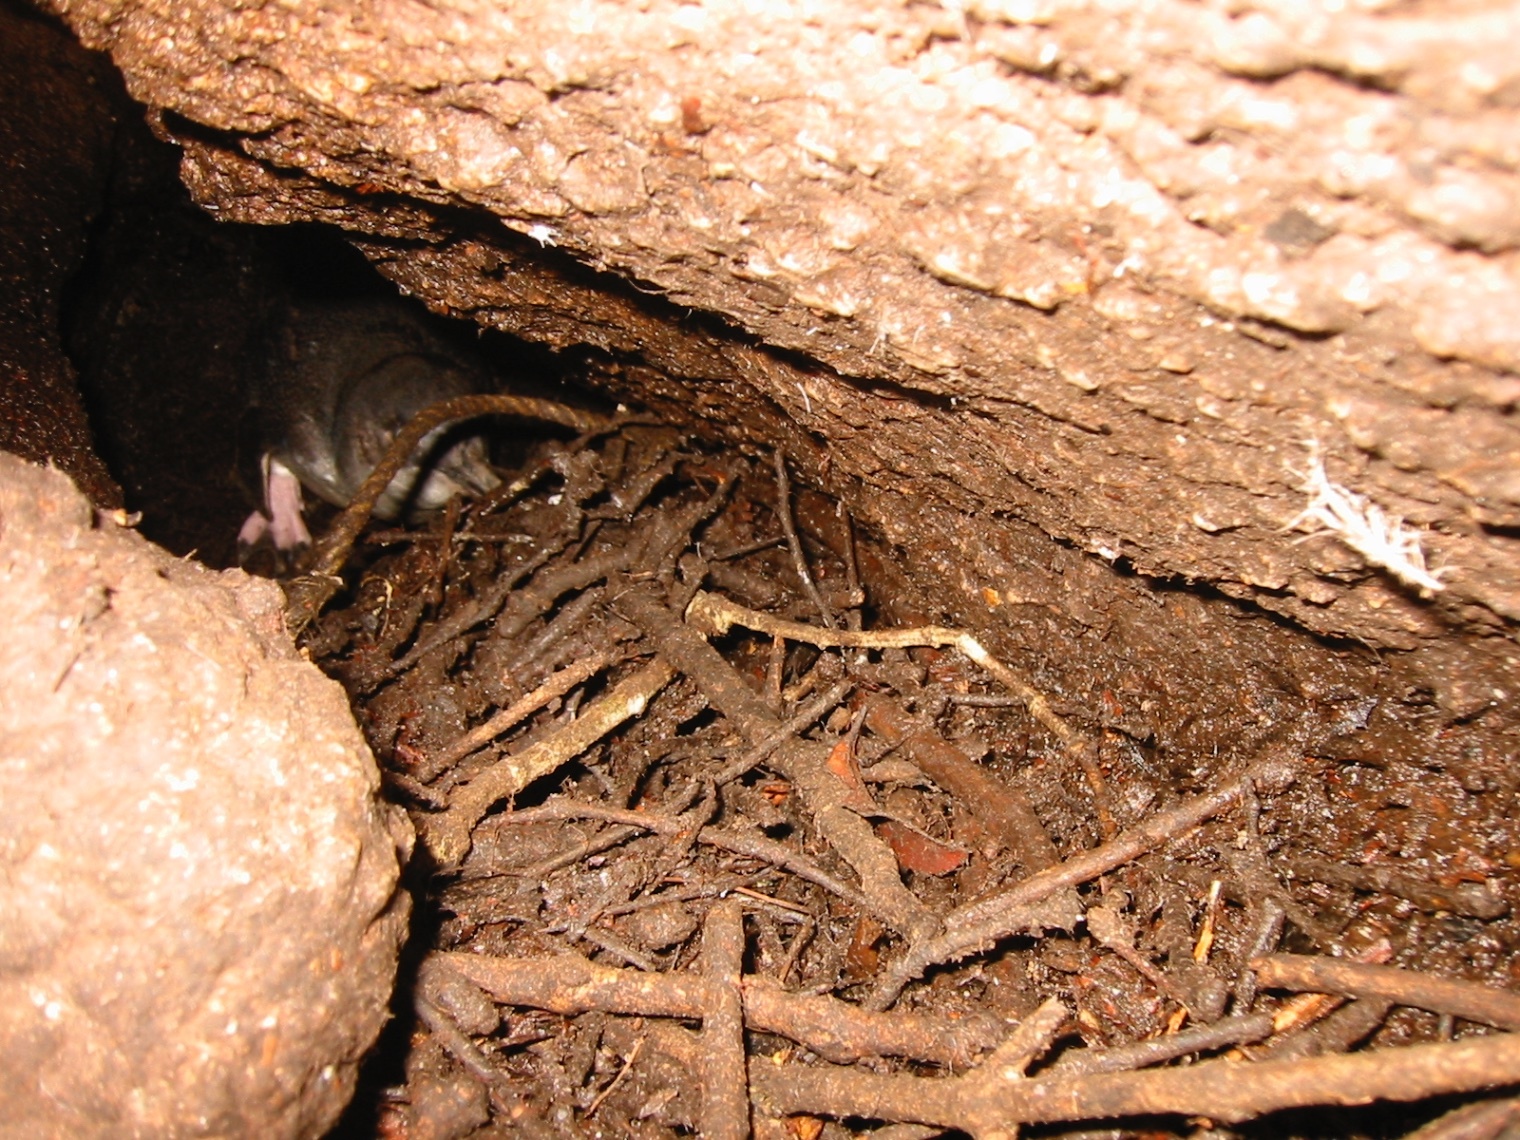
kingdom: Animalia
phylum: Chordata
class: Aves
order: Sphenisciformes
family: Spheniscidae
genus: Eudyptula
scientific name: Eudyptula minor
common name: Little penguin
